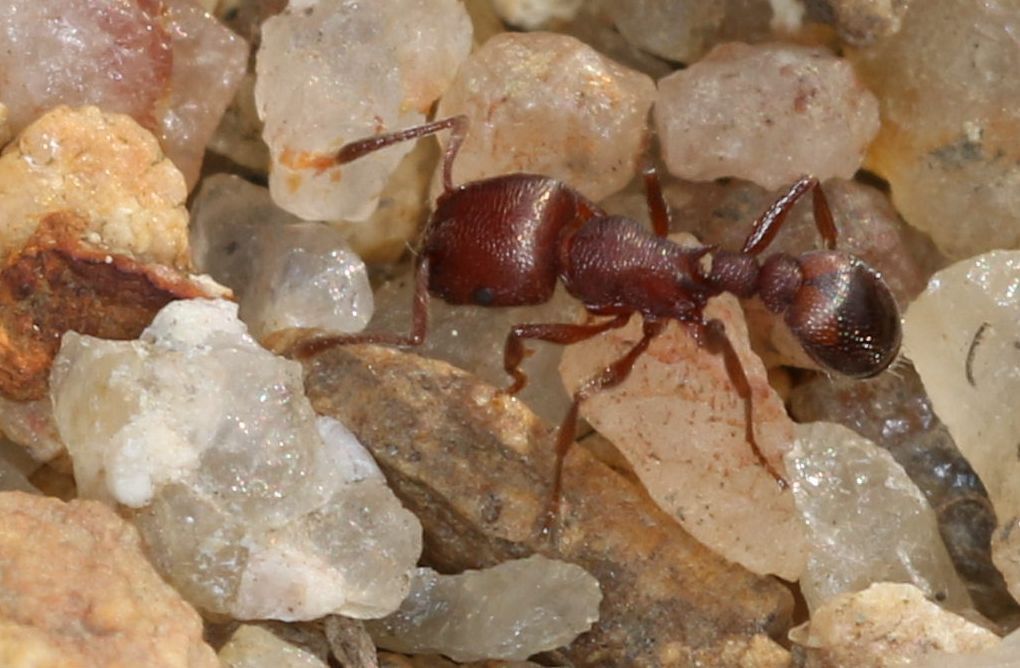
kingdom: Animalia
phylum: Arthropoda
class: Insecta
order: Hymenoptera
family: Formicidae
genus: Tetramorium
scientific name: Tetramorium setuliferum
